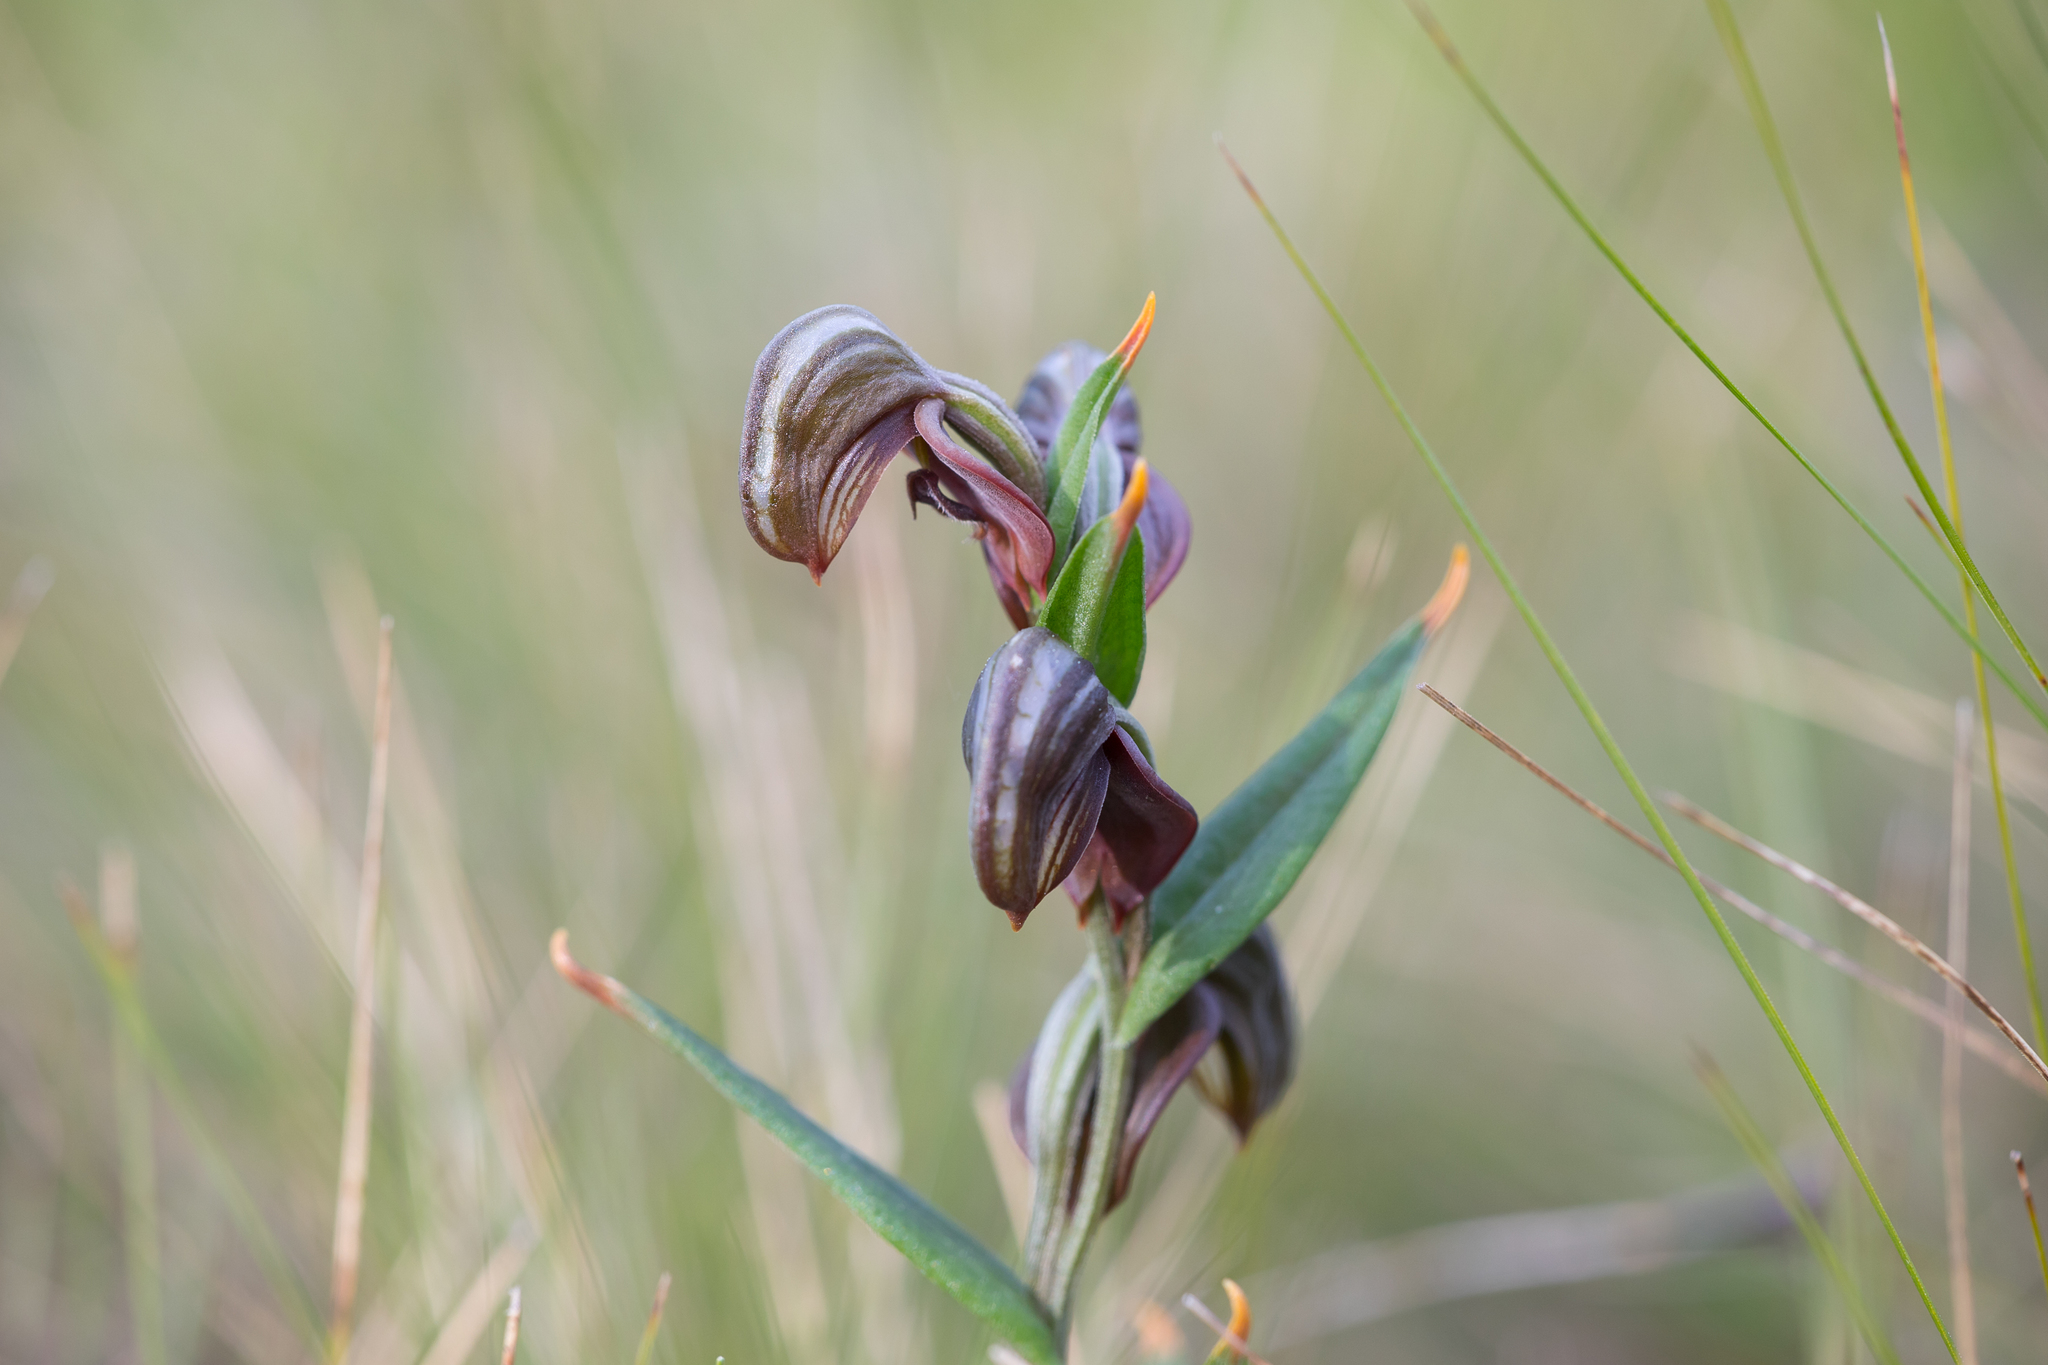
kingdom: Plantae
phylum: Tracheophyta
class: Liliopsida
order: Asparagales
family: Orchidaceae
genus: Pterostylis
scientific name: Pterostylis sanguinea
